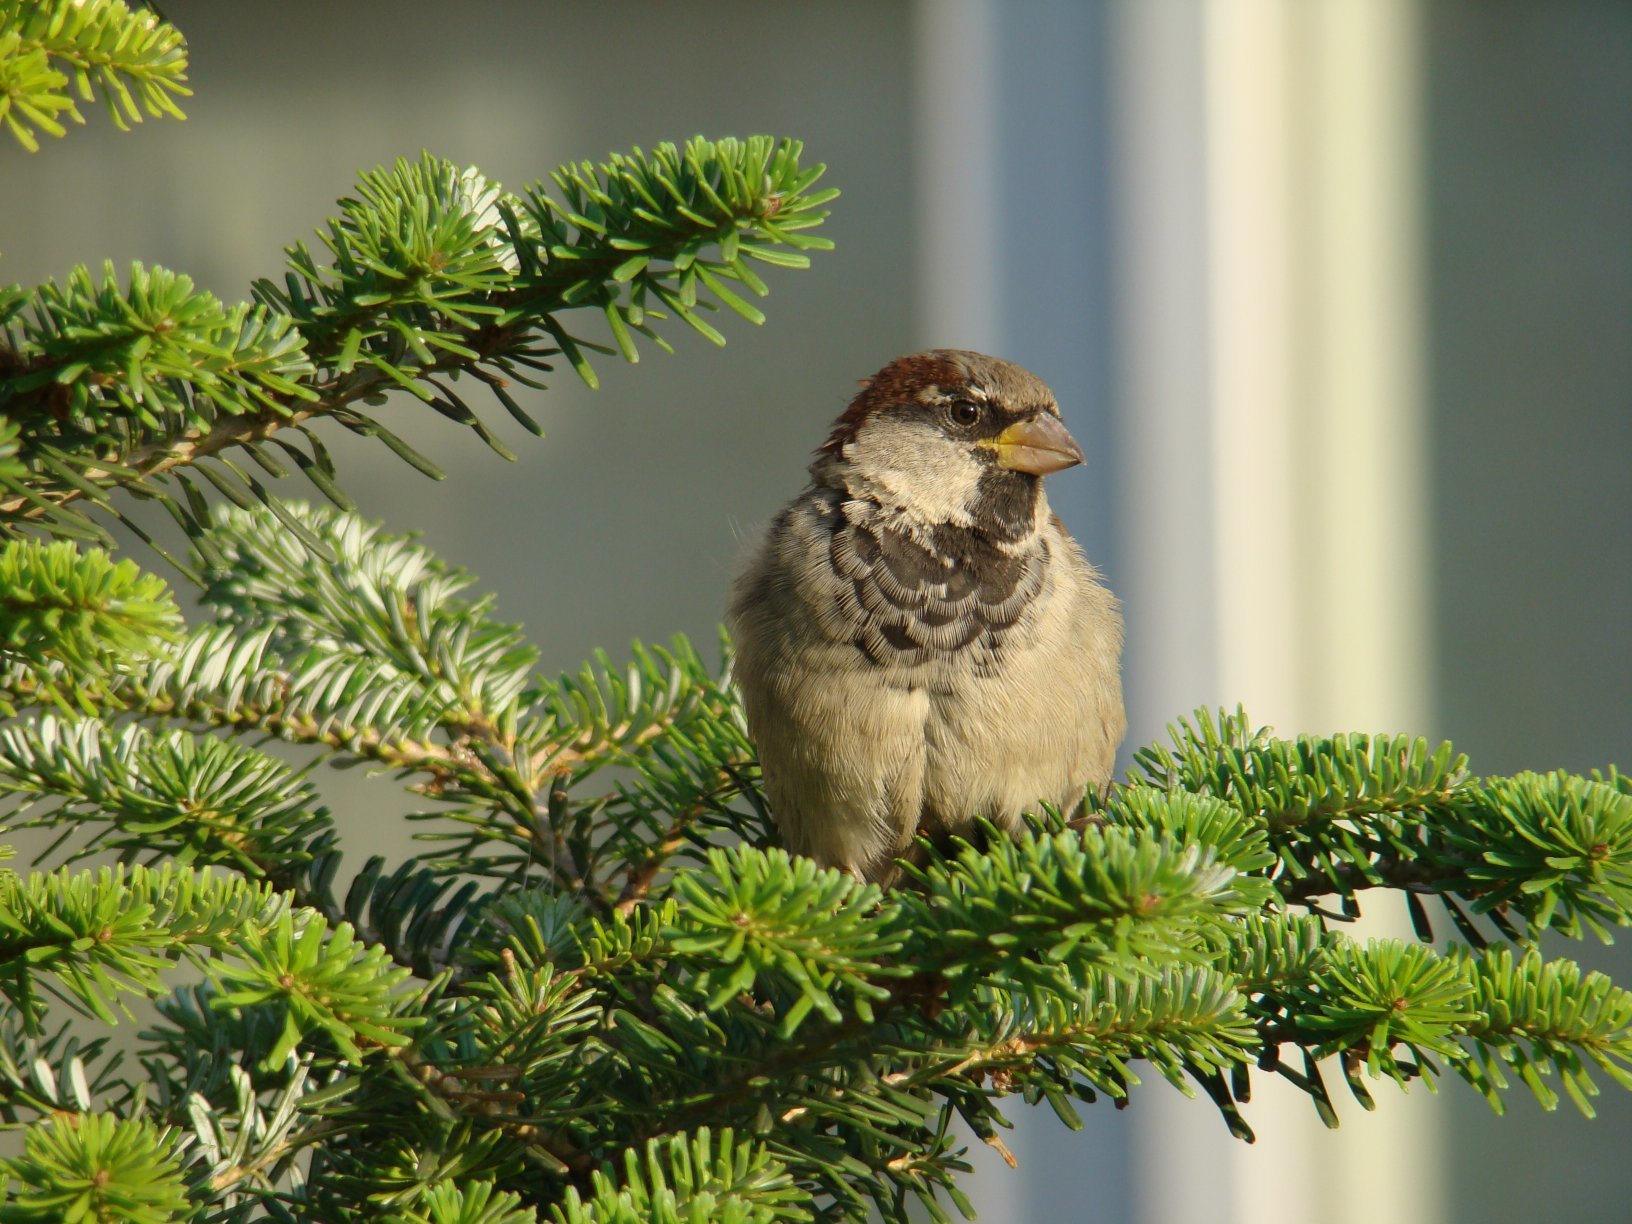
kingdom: Animalia
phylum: Chordata
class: Aves
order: Passeriformes
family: Passeridae
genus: Passer
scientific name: Passer domesticus
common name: House sparrow
